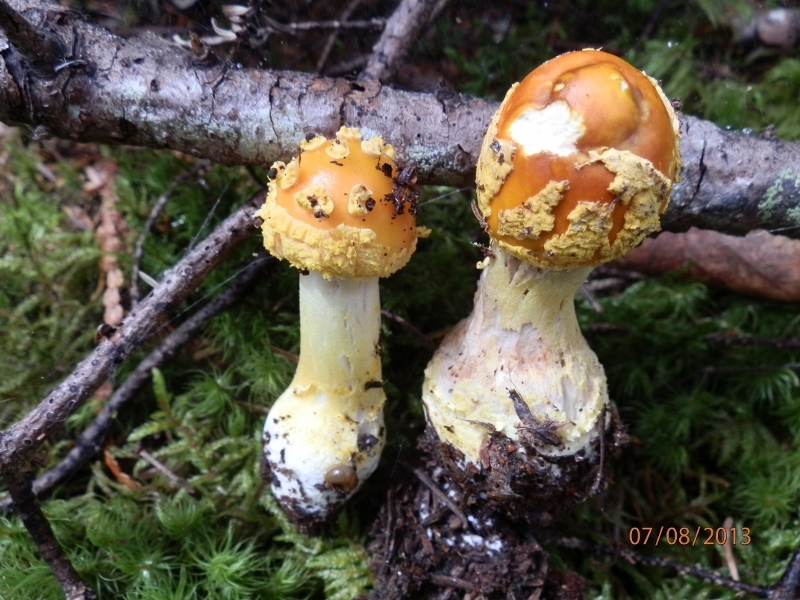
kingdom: Fungi
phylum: Basidiomycota
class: Agaricomycetes
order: Agaricales
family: Amanitaceae
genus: Amanita
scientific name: Amanita flavoconia
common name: Yellow patches
